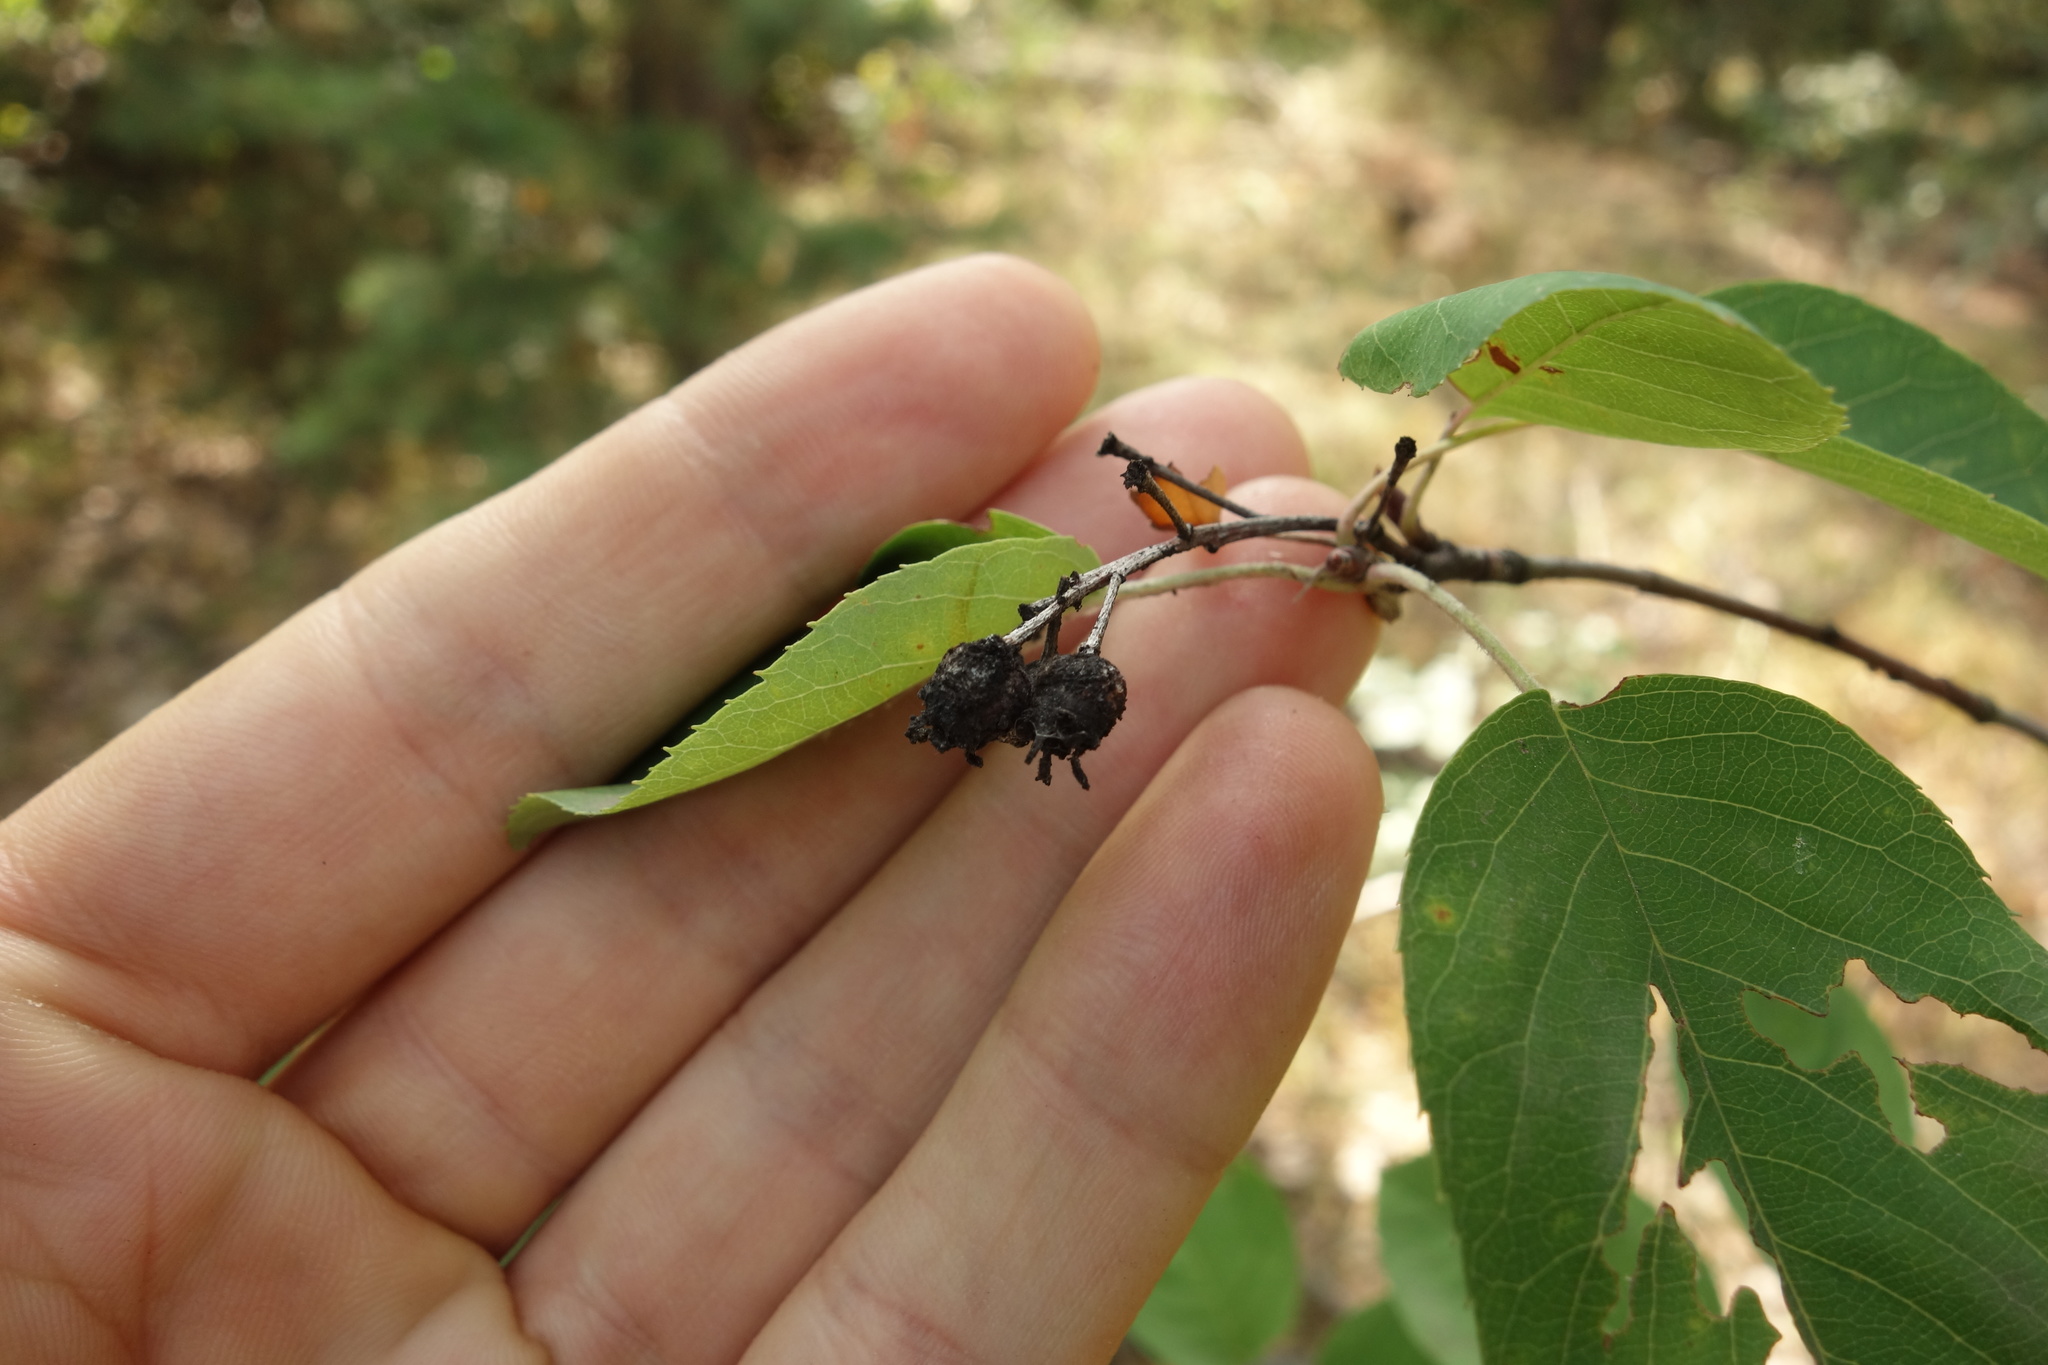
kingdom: Plantae
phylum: Tracheophyta
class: Magnoliopsida
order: Rosales
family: Rosaceae
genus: Amelanchier
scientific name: Amelanchier
